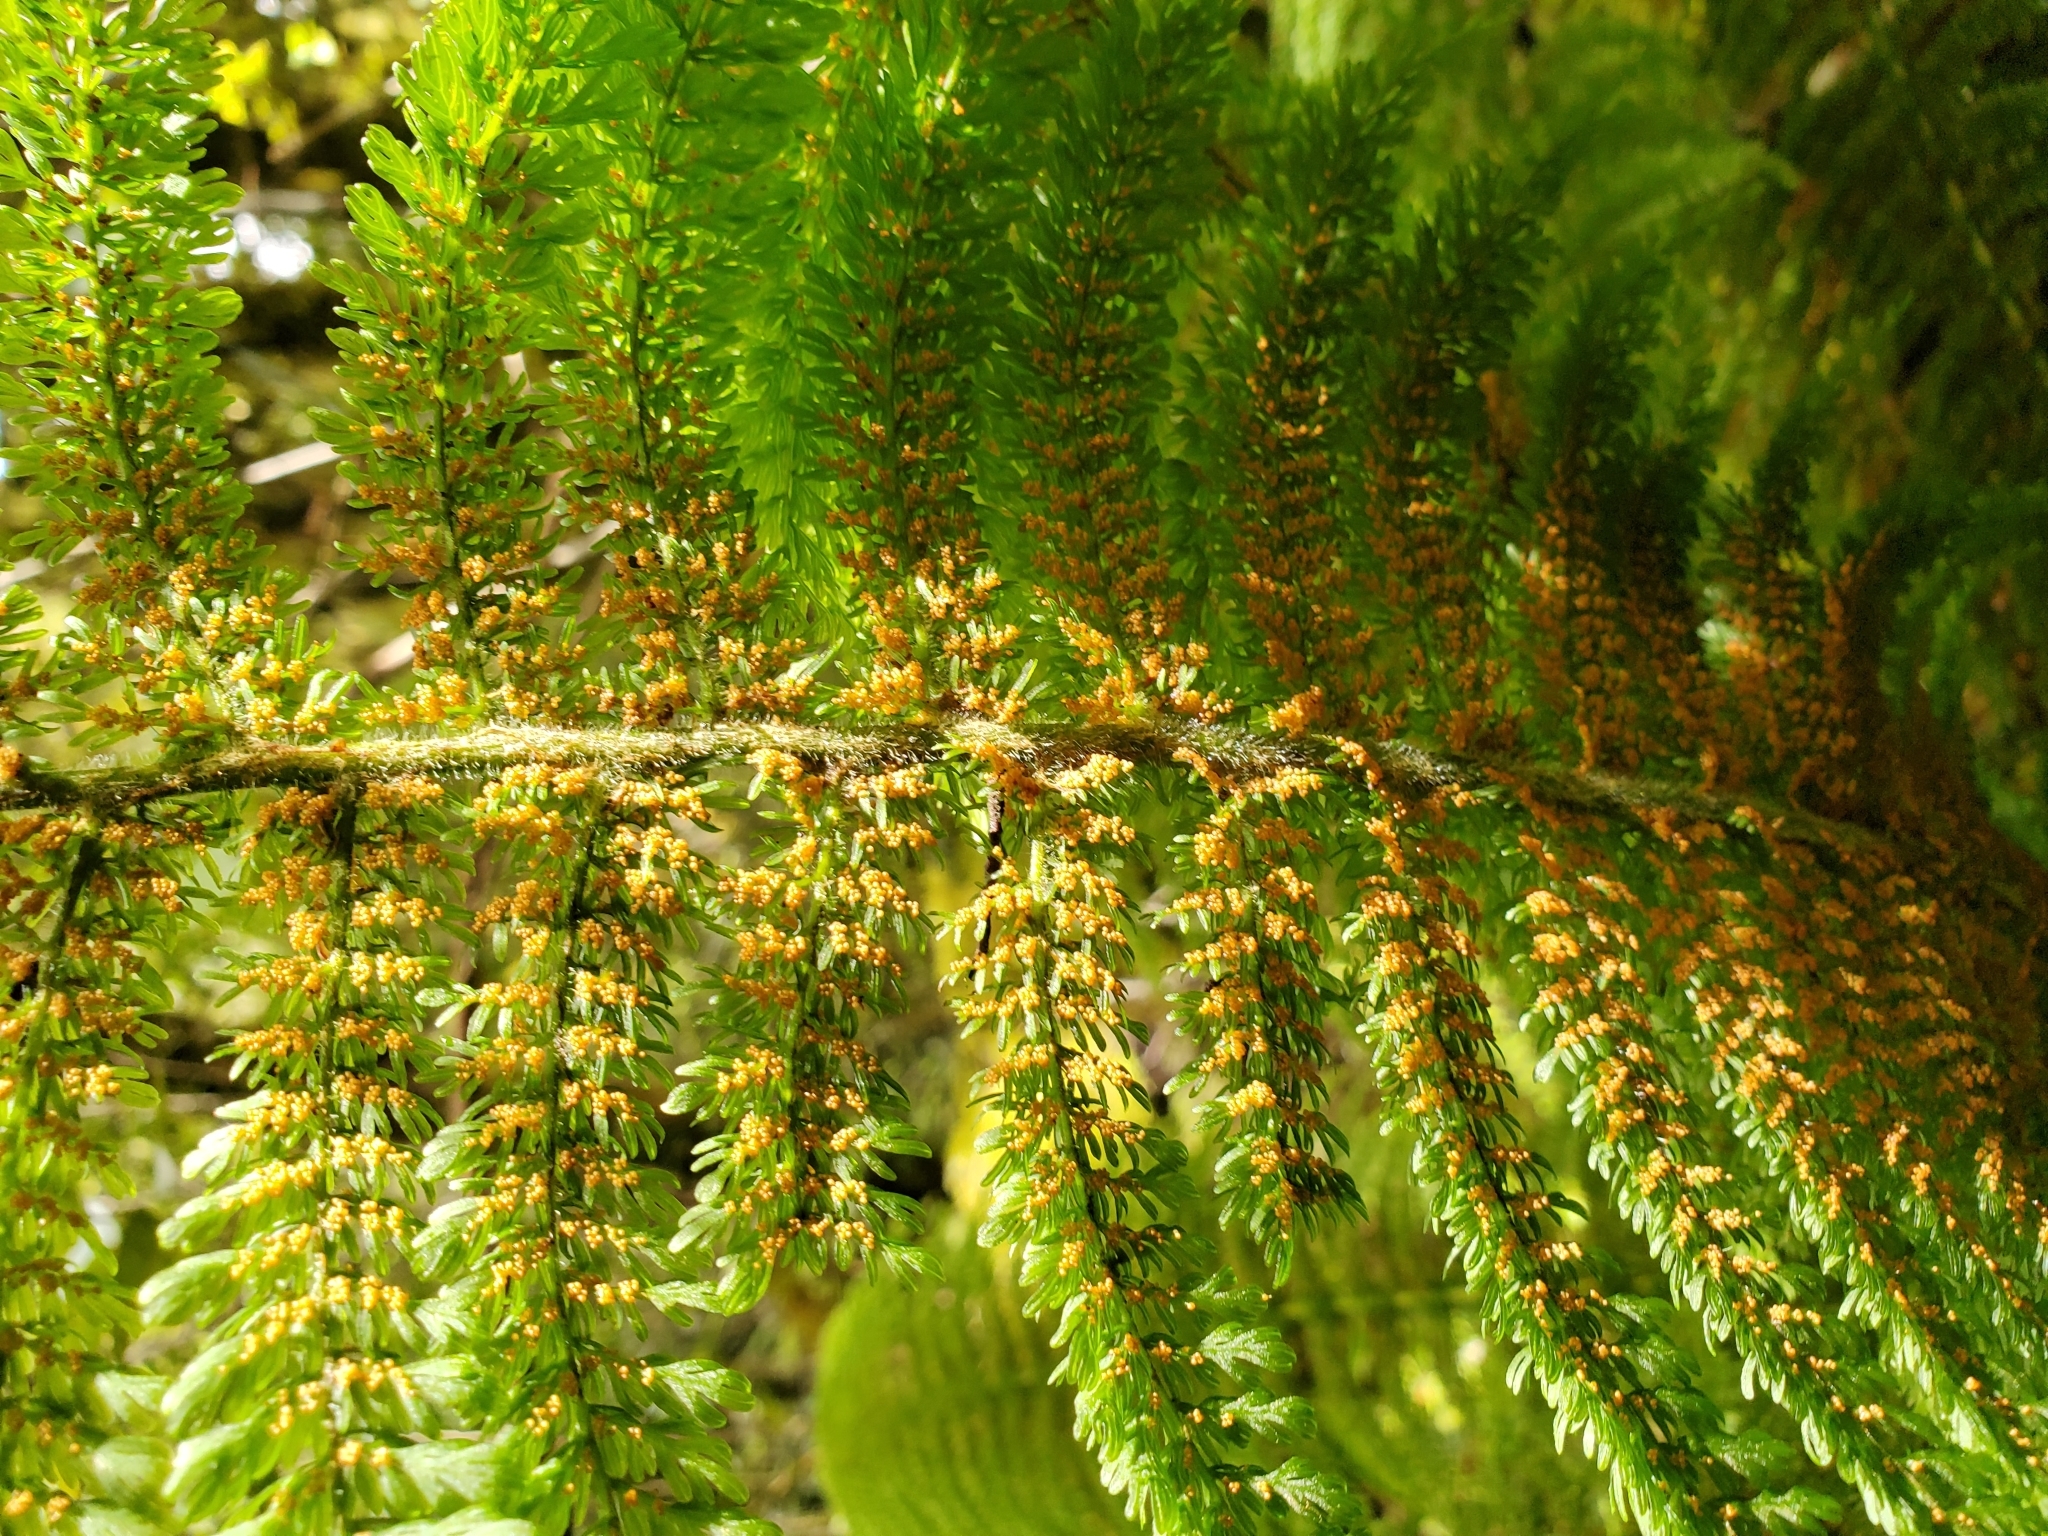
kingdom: Plantae
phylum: Tracheophyta
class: Polypodiopsida
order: Osmundales
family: Osmundaceae
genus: Leptopteris
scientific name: Leptopteris superba
